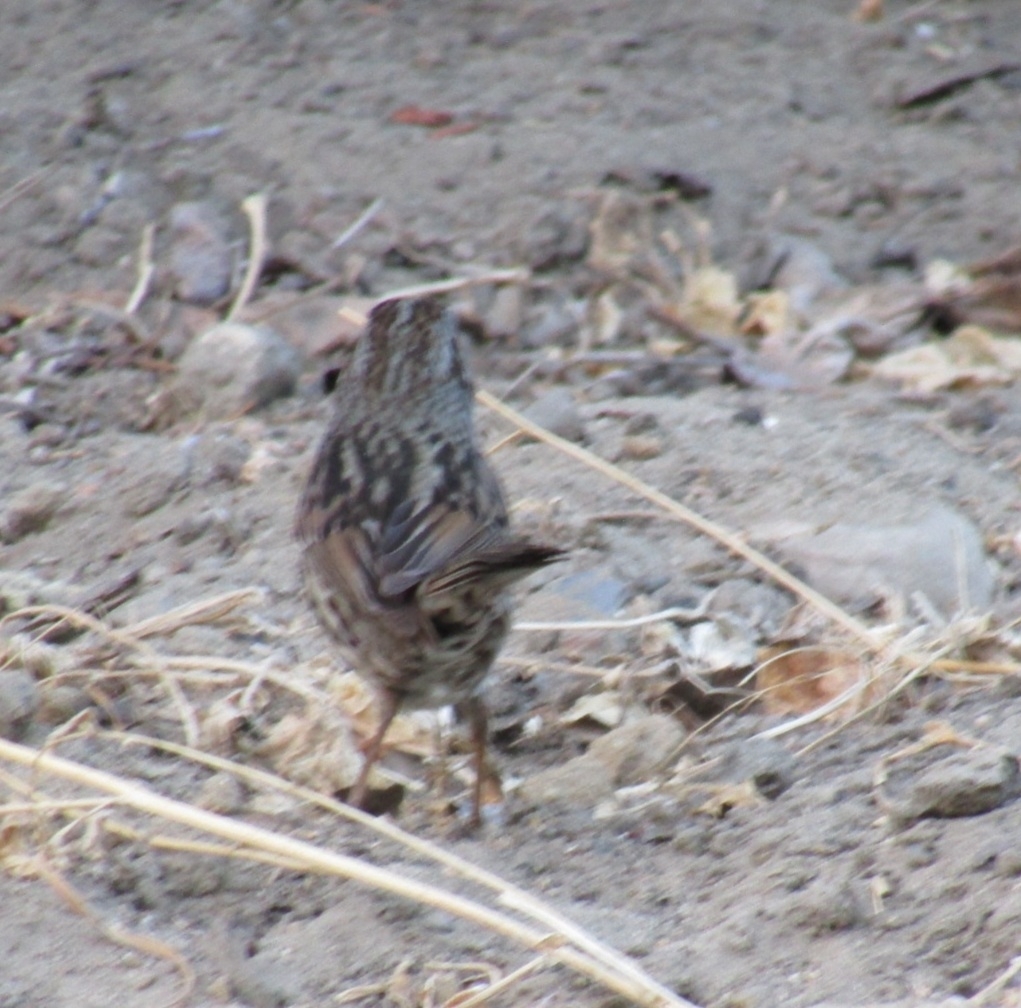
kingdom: Animalia
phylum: Chordata
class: Aves
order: Passeriformes
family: Passerellidae
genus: Melospiza
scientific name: Melospiza melodia
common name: Song sparrow
